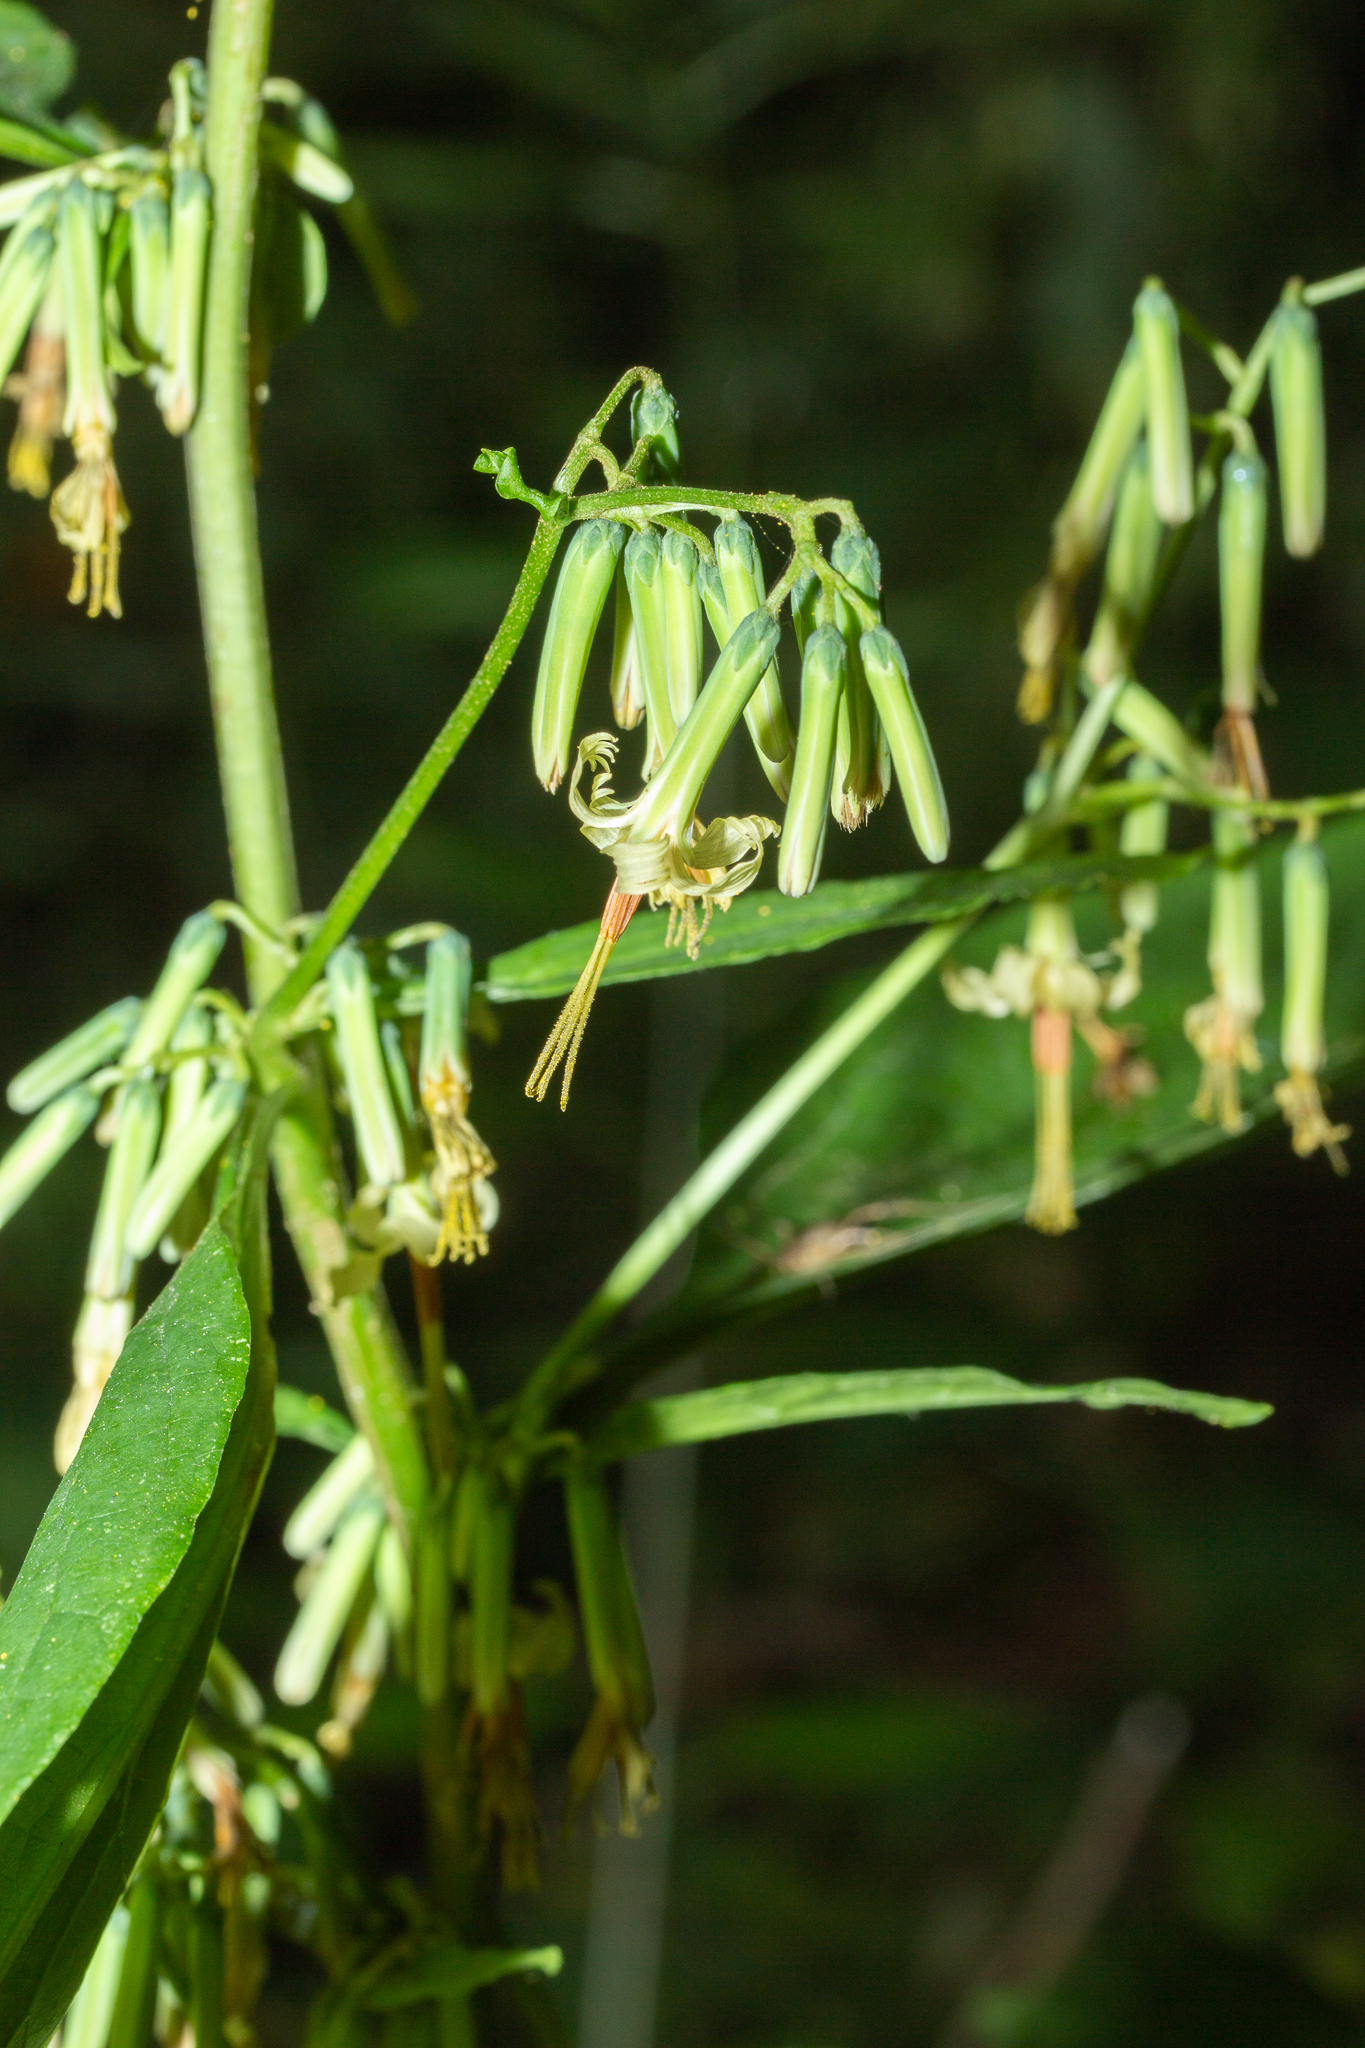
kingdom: Plantae
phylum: Tracheophyta
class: Magnoliopsida
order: Asterales
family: Asteraceae
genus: Nabalus
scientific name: Nabalus altissima
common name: Tall rattlesnakeroot
